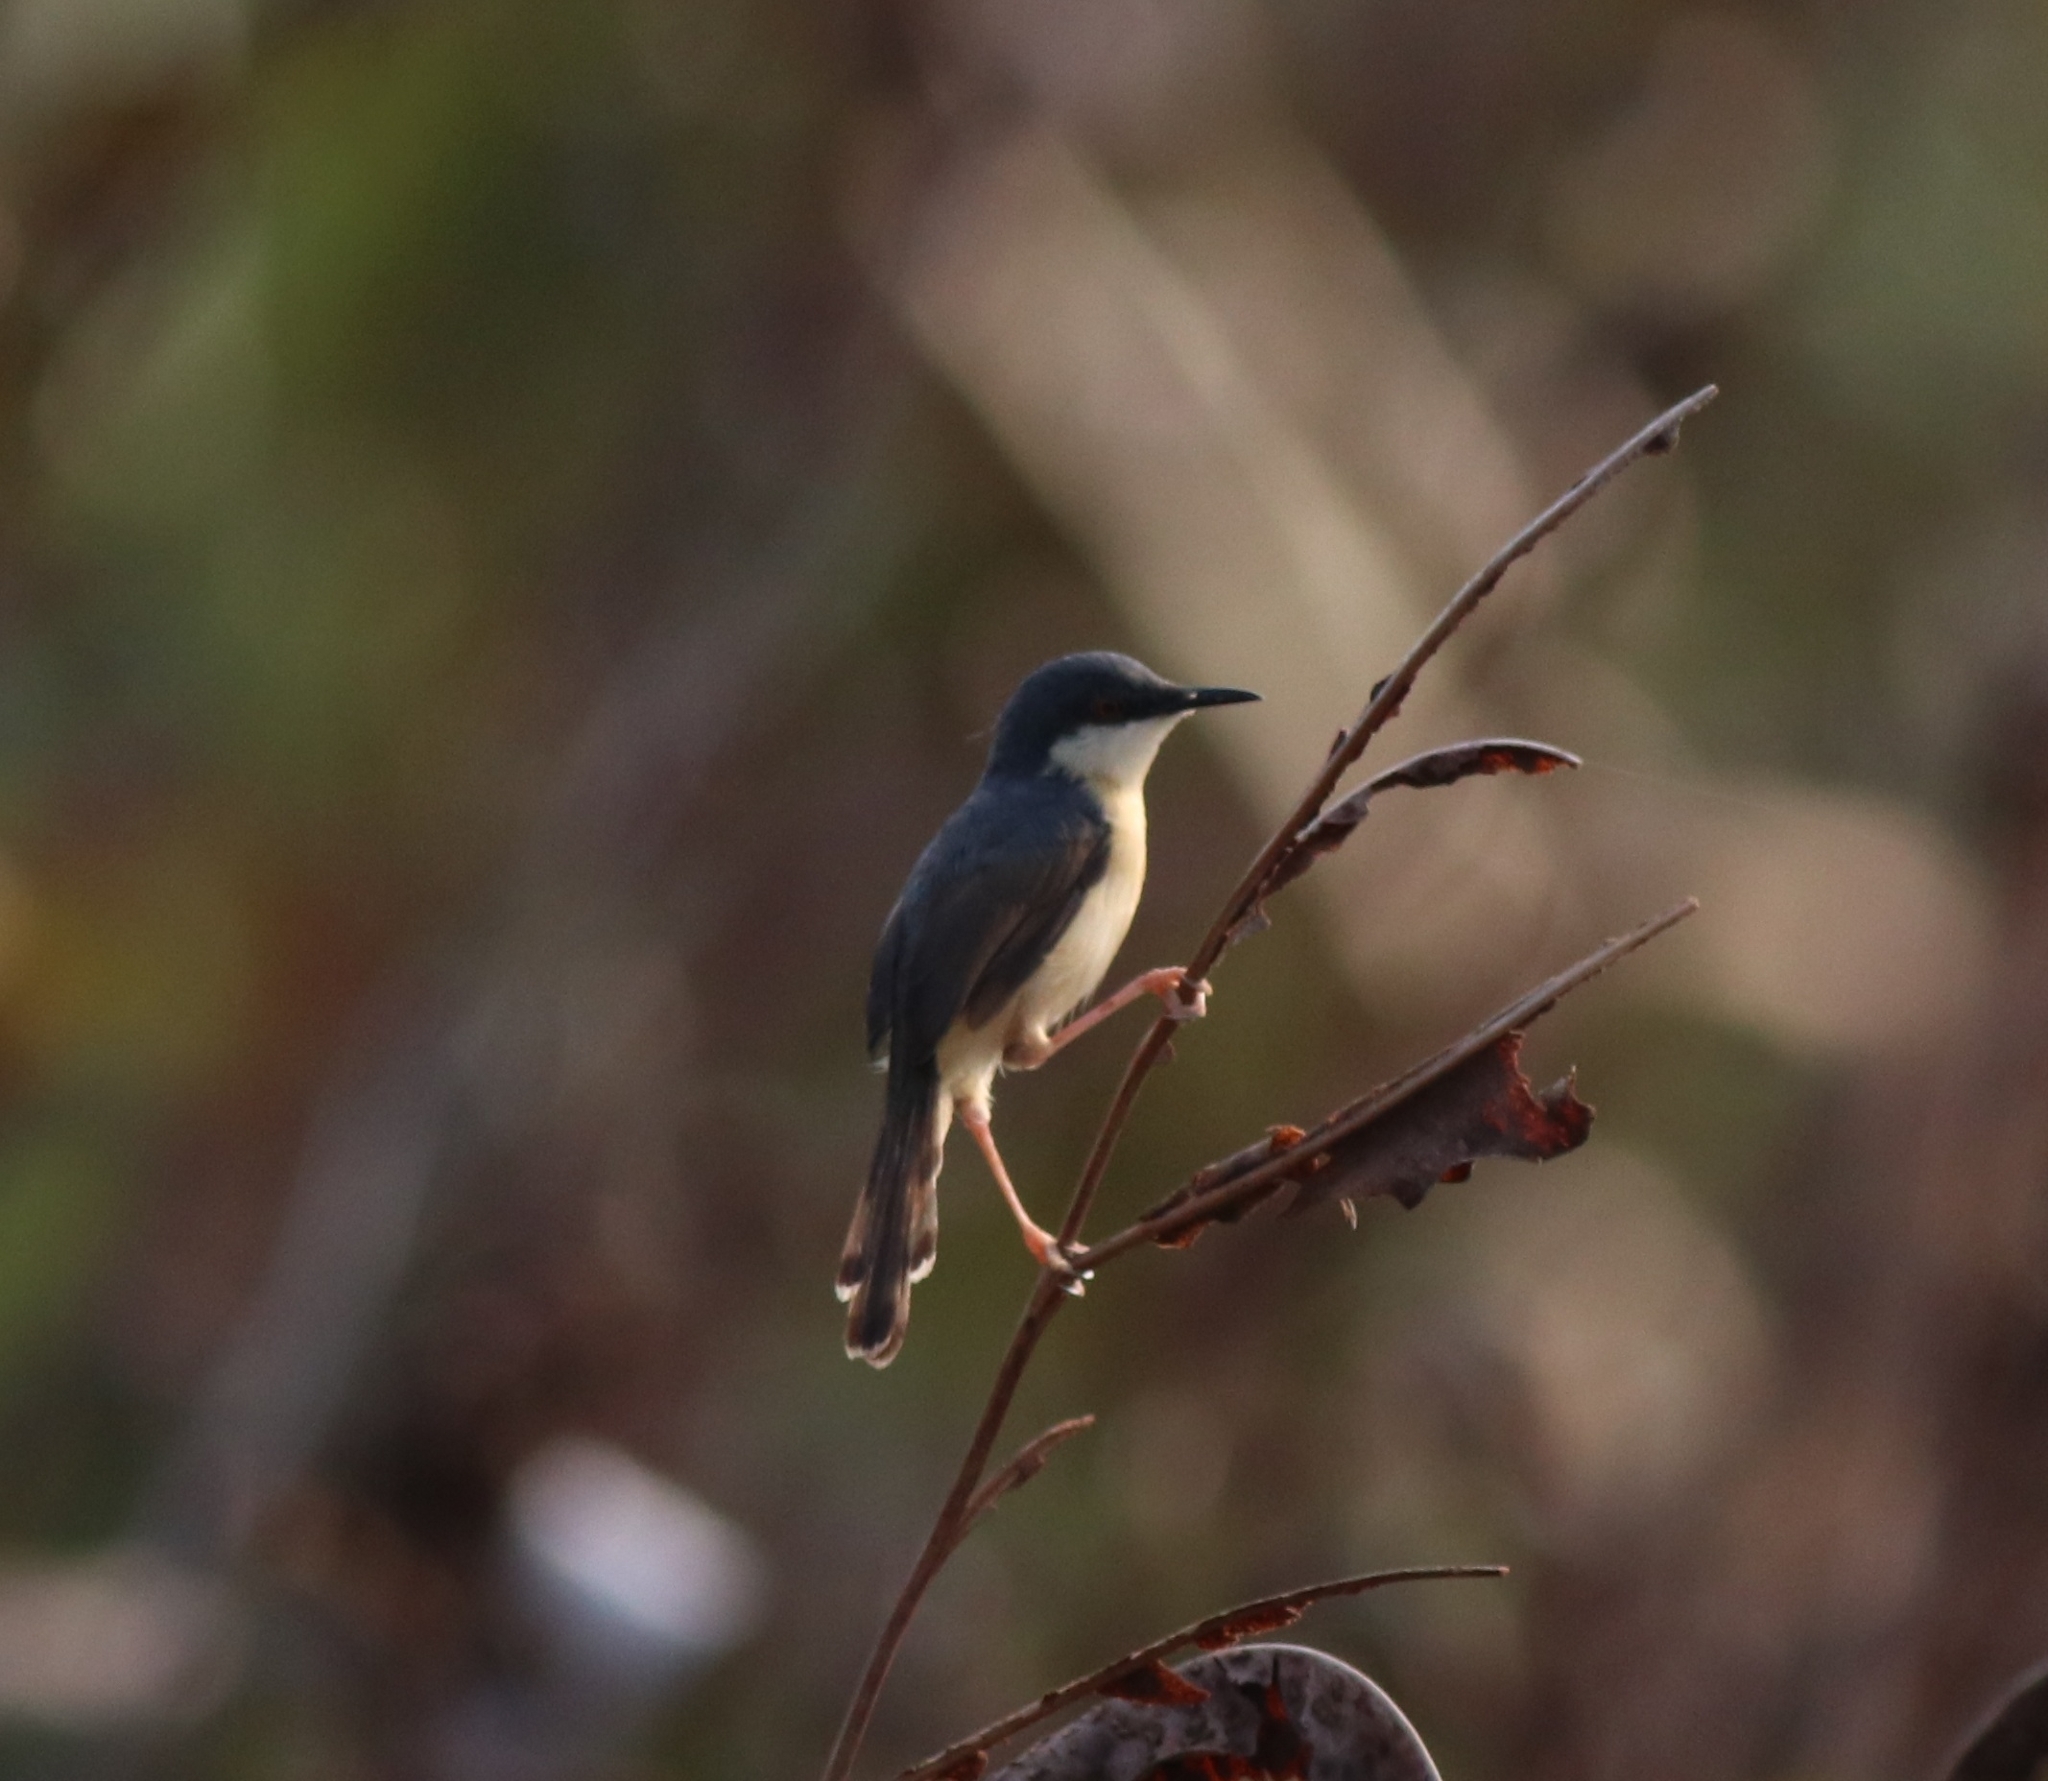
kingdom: Animalia
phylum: Chordata
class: Aves
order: Passeriformes
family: Cisticolidae
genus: Prinia
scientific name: Prinia socialis
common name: Ashy prinia
